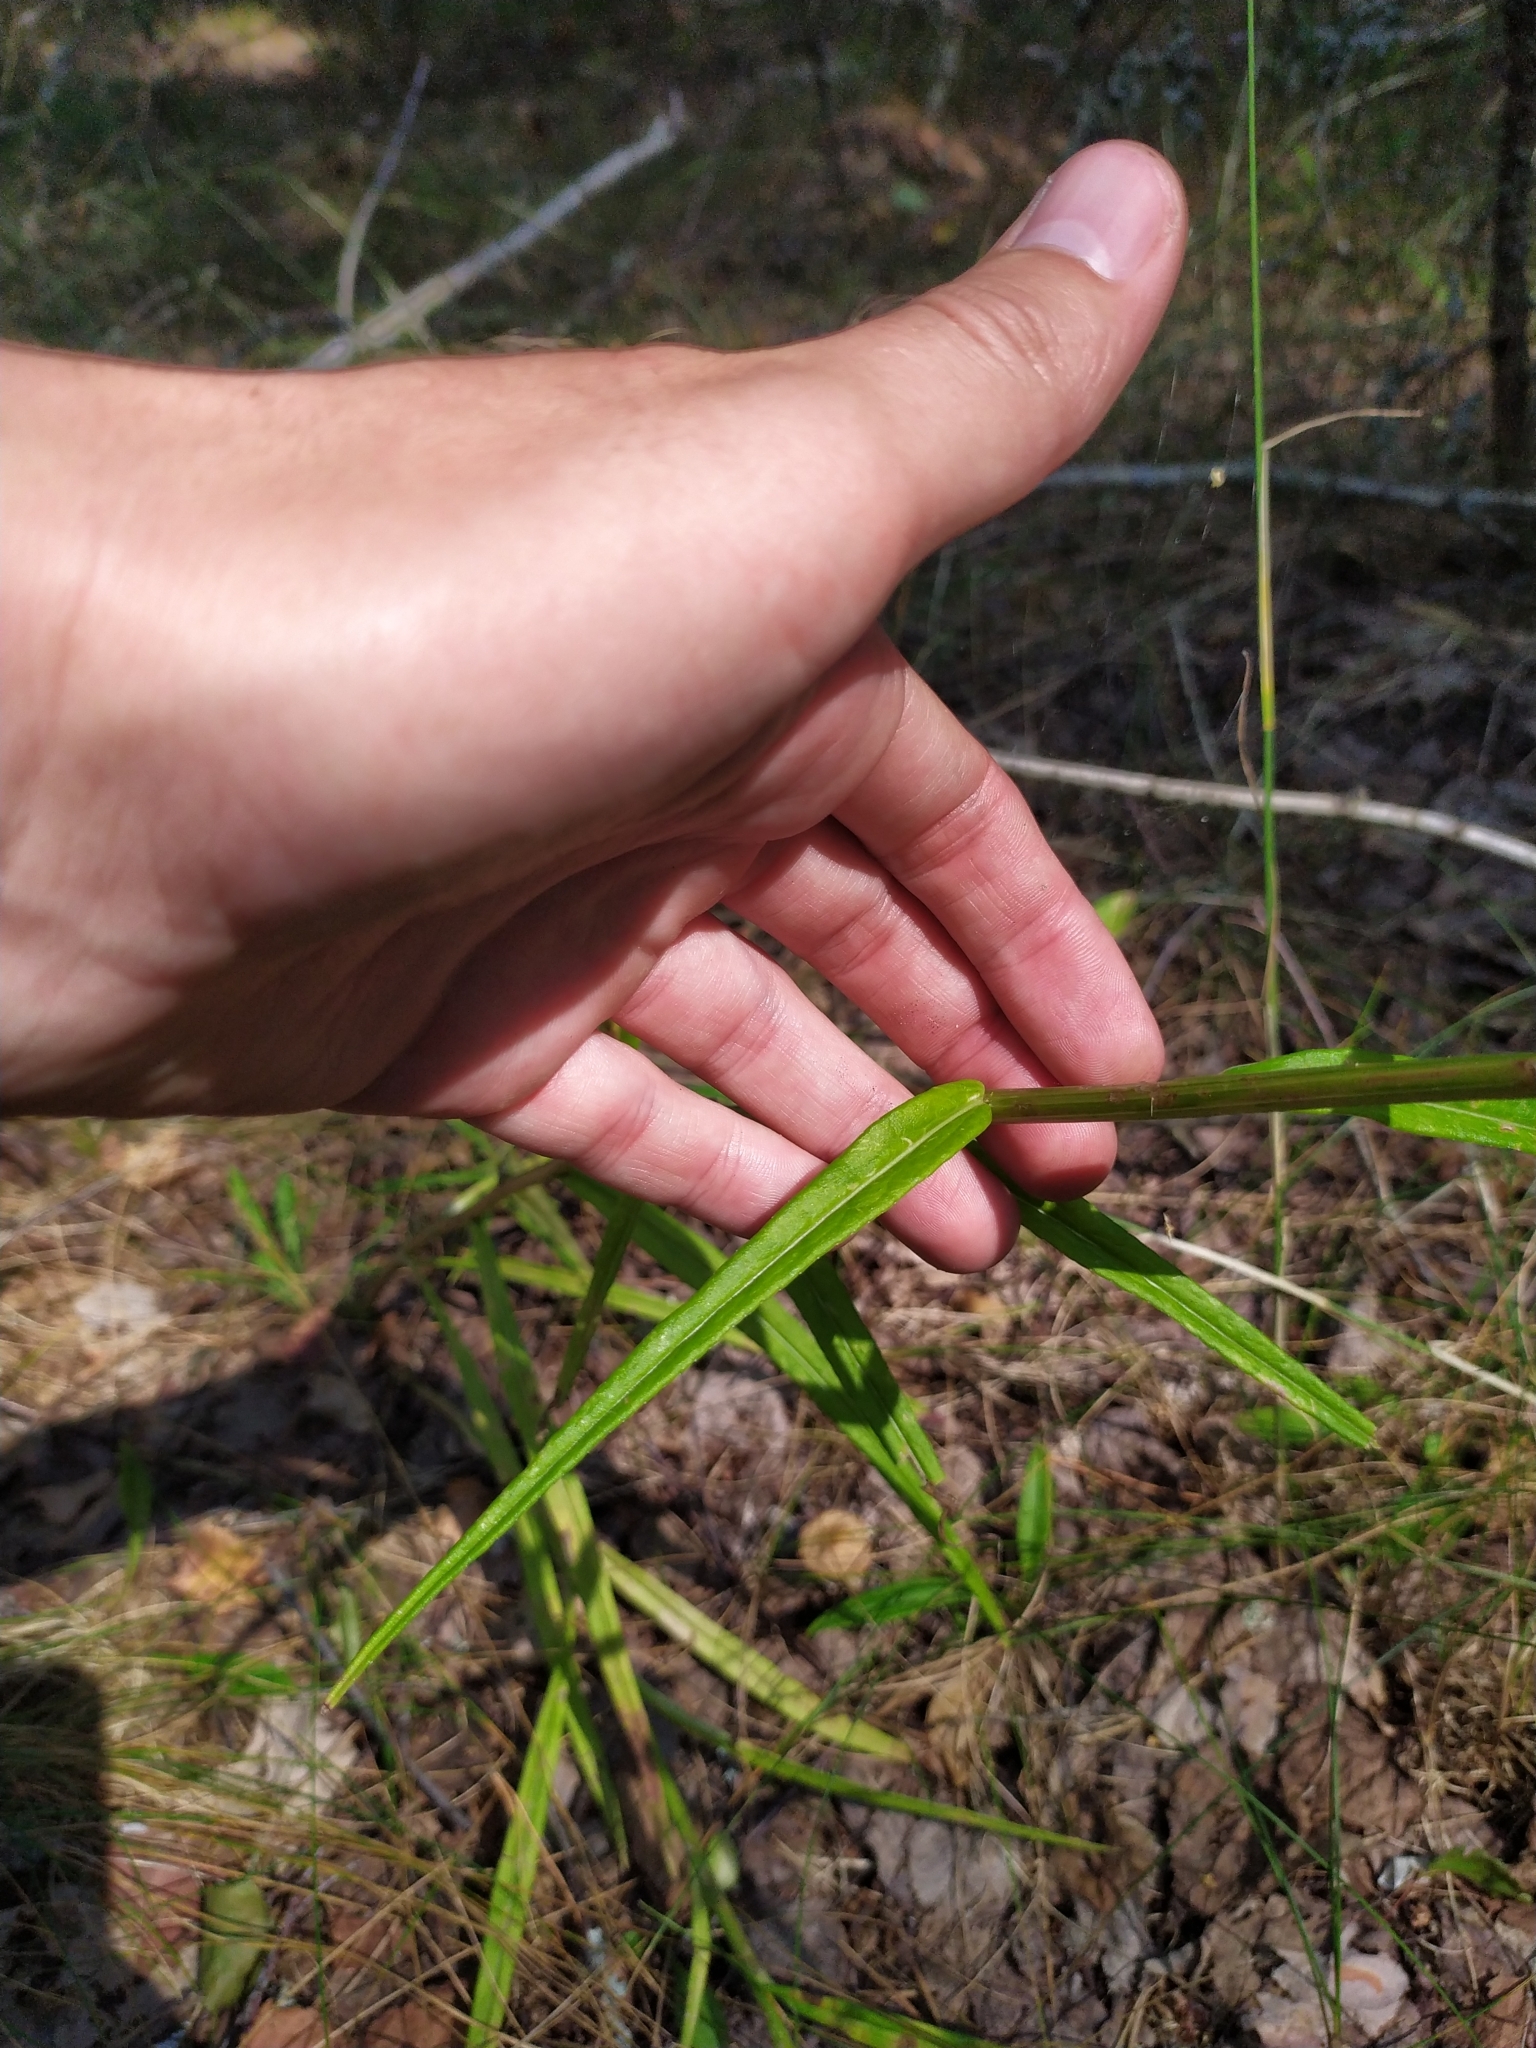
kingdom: Plantae
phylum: Tracheophyta
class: Magnoliopsida
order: Asterales
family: Campanulaceae
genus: Campanula
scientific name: Campanula persicifolia
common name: Peach-leaved bellflower
